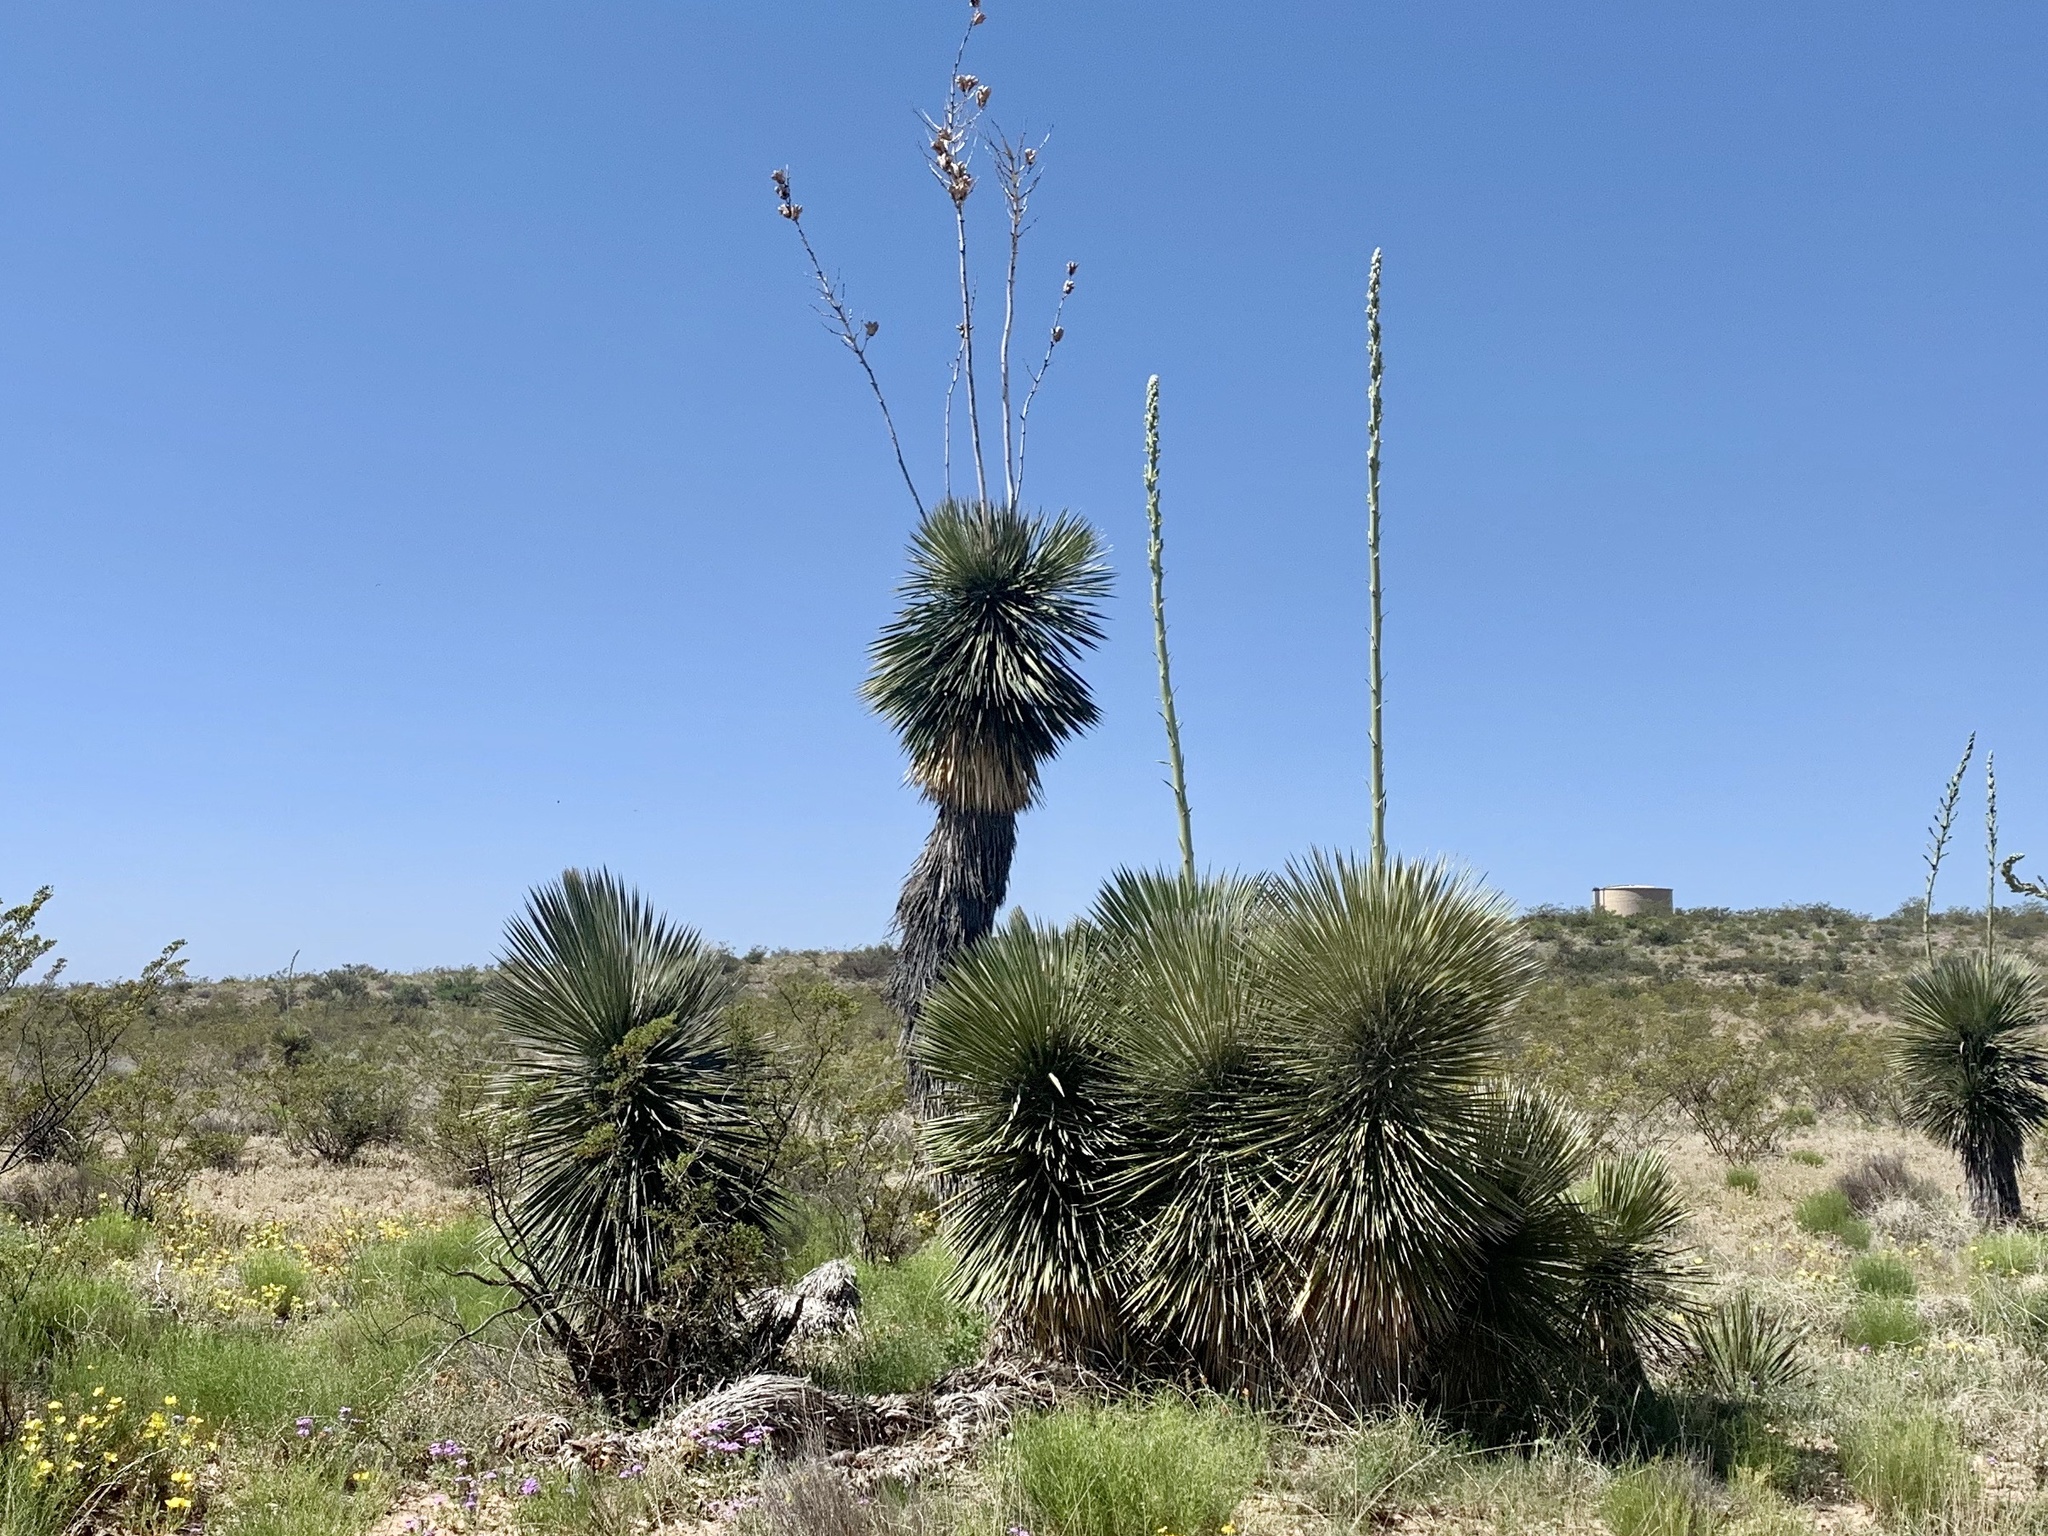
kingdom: Plantae
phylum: Tracheophyta
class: Liliopsida
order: Asparagales
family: Asparagaceae
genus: Yucca
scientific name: Yucca elata
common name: Palmella
